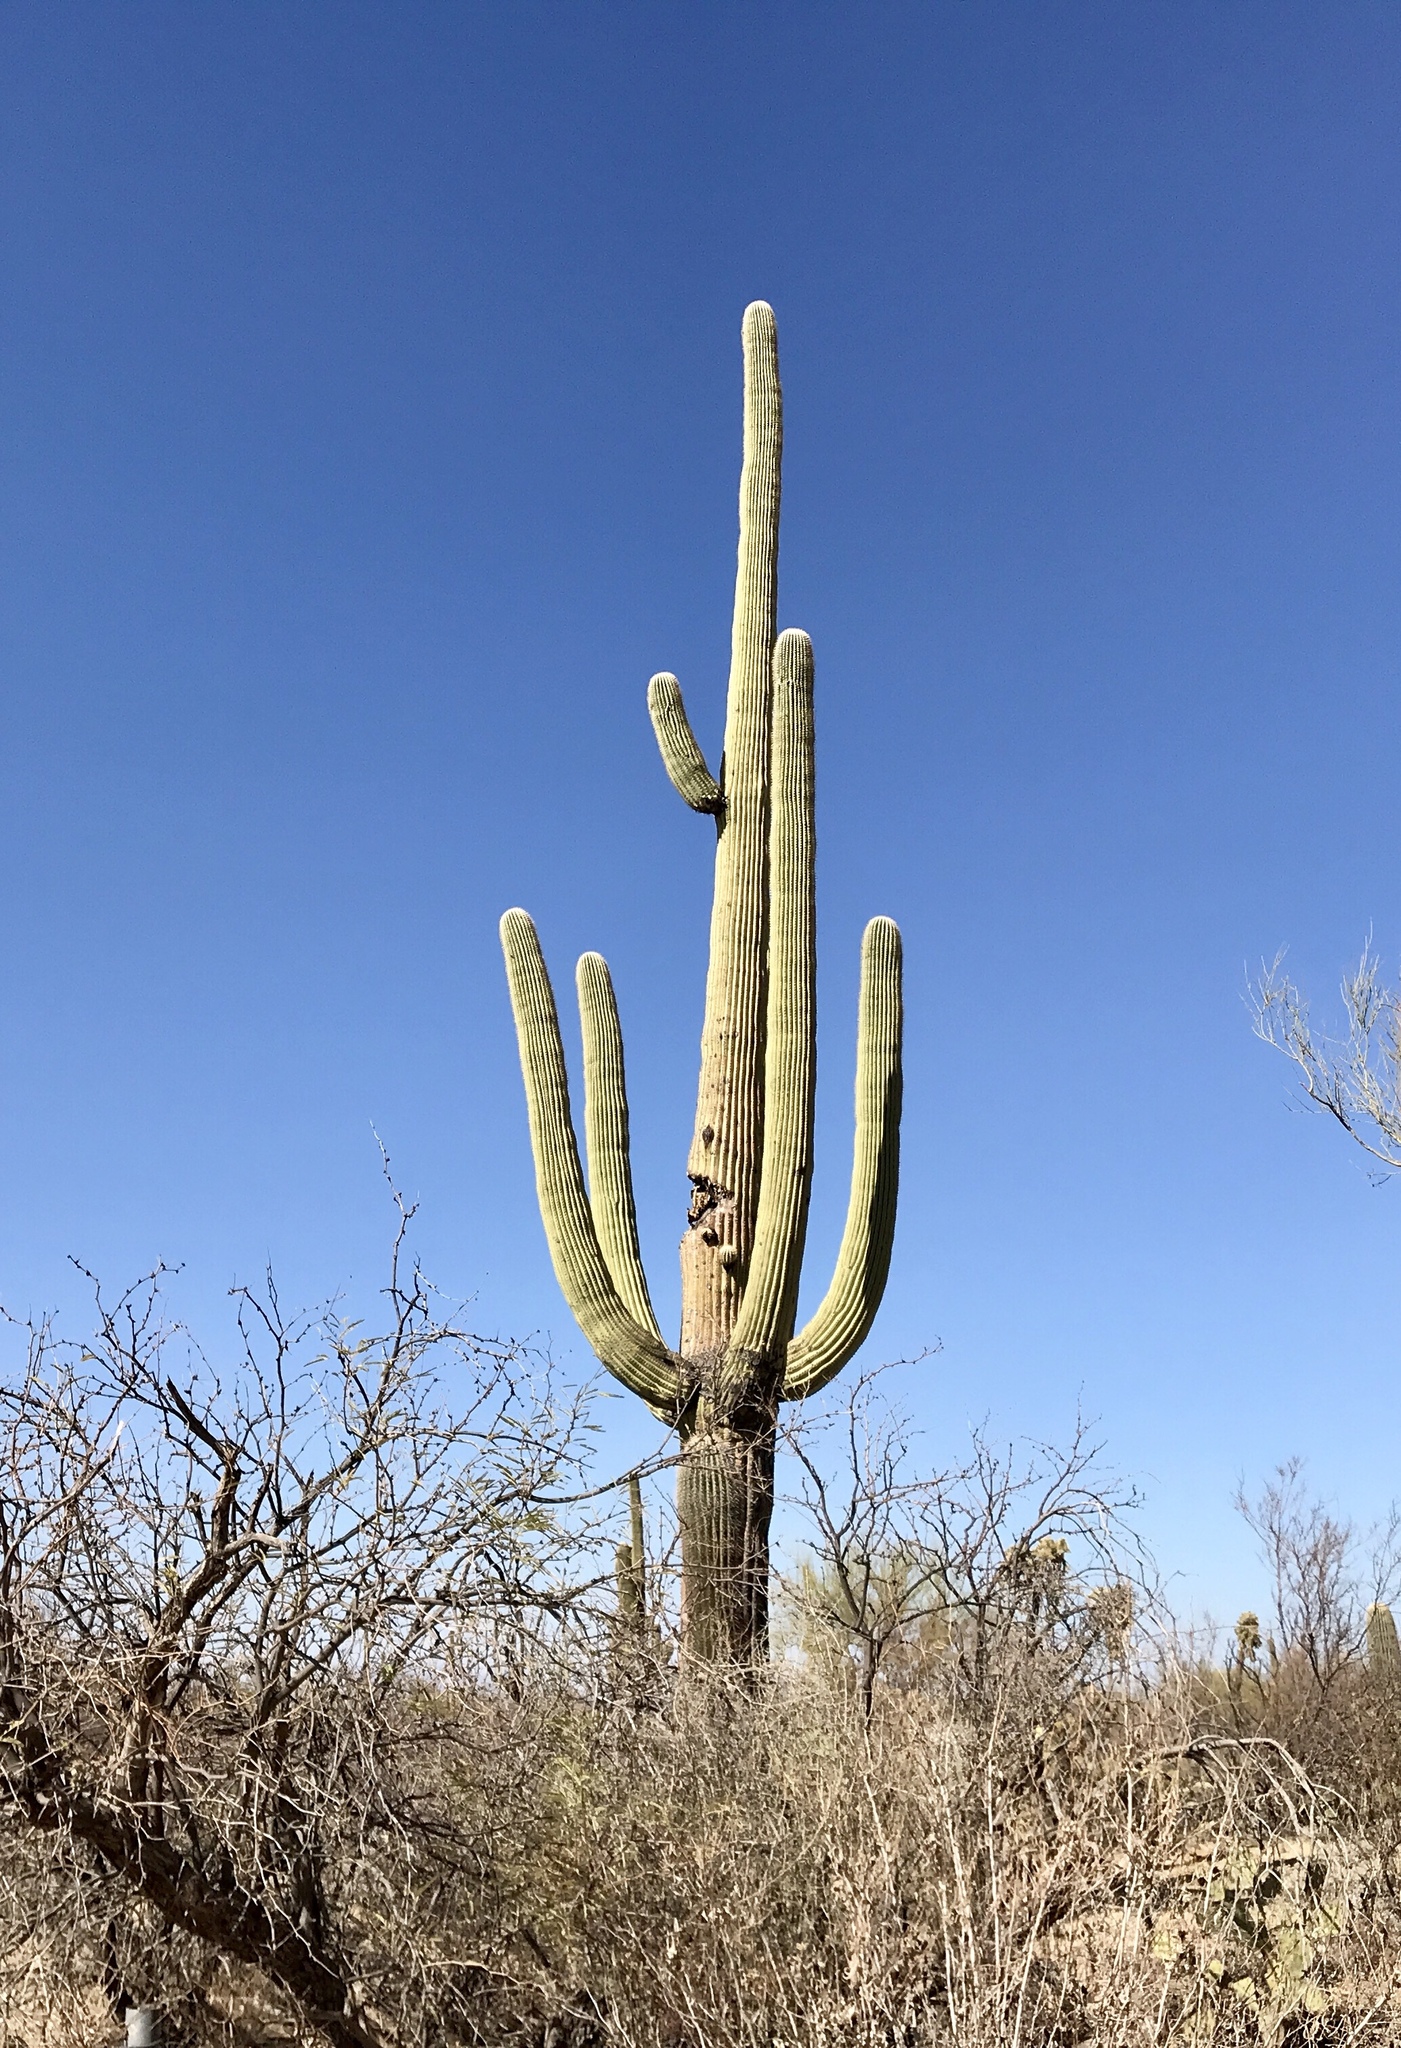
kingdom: Plantae
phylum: Tracheophyta
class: Magnoliopsida
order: Caryophyllales
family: Cactaceae
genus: Carnegiea
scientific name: Carnegiea gigantea
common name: Saguaro
